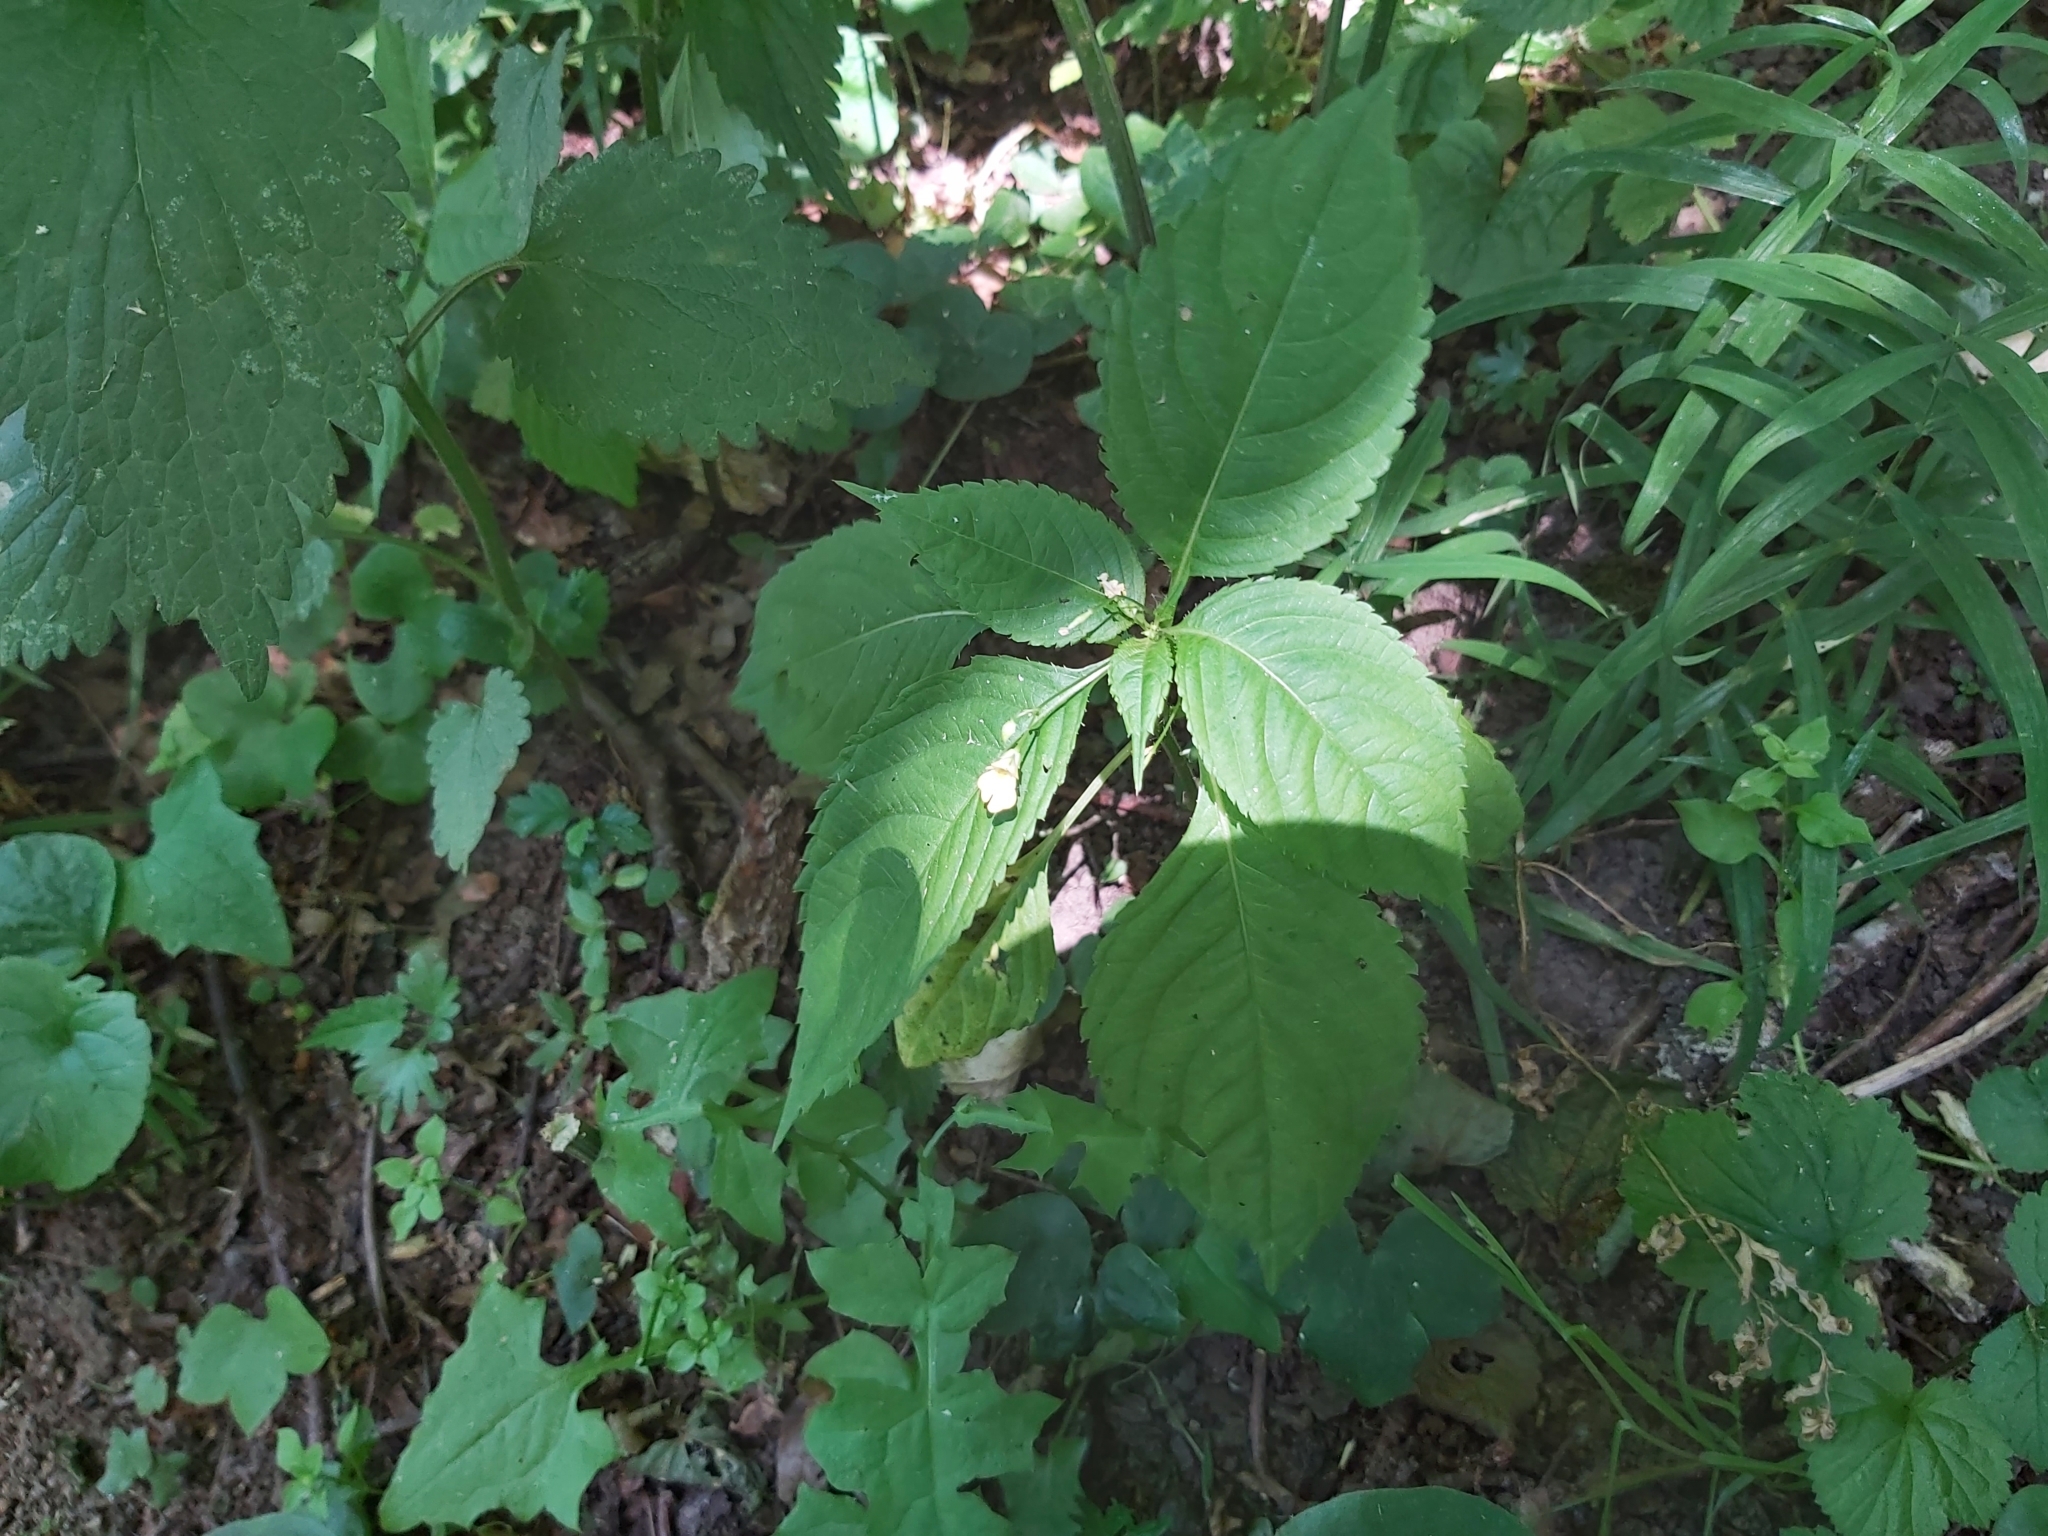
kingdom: Plantae
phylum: Tracheophyta
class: Magnoliopsida
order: Ericales
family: Balsaminaceae
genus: Impatiens
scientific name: Impatiens parviflora
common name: Small balsam
